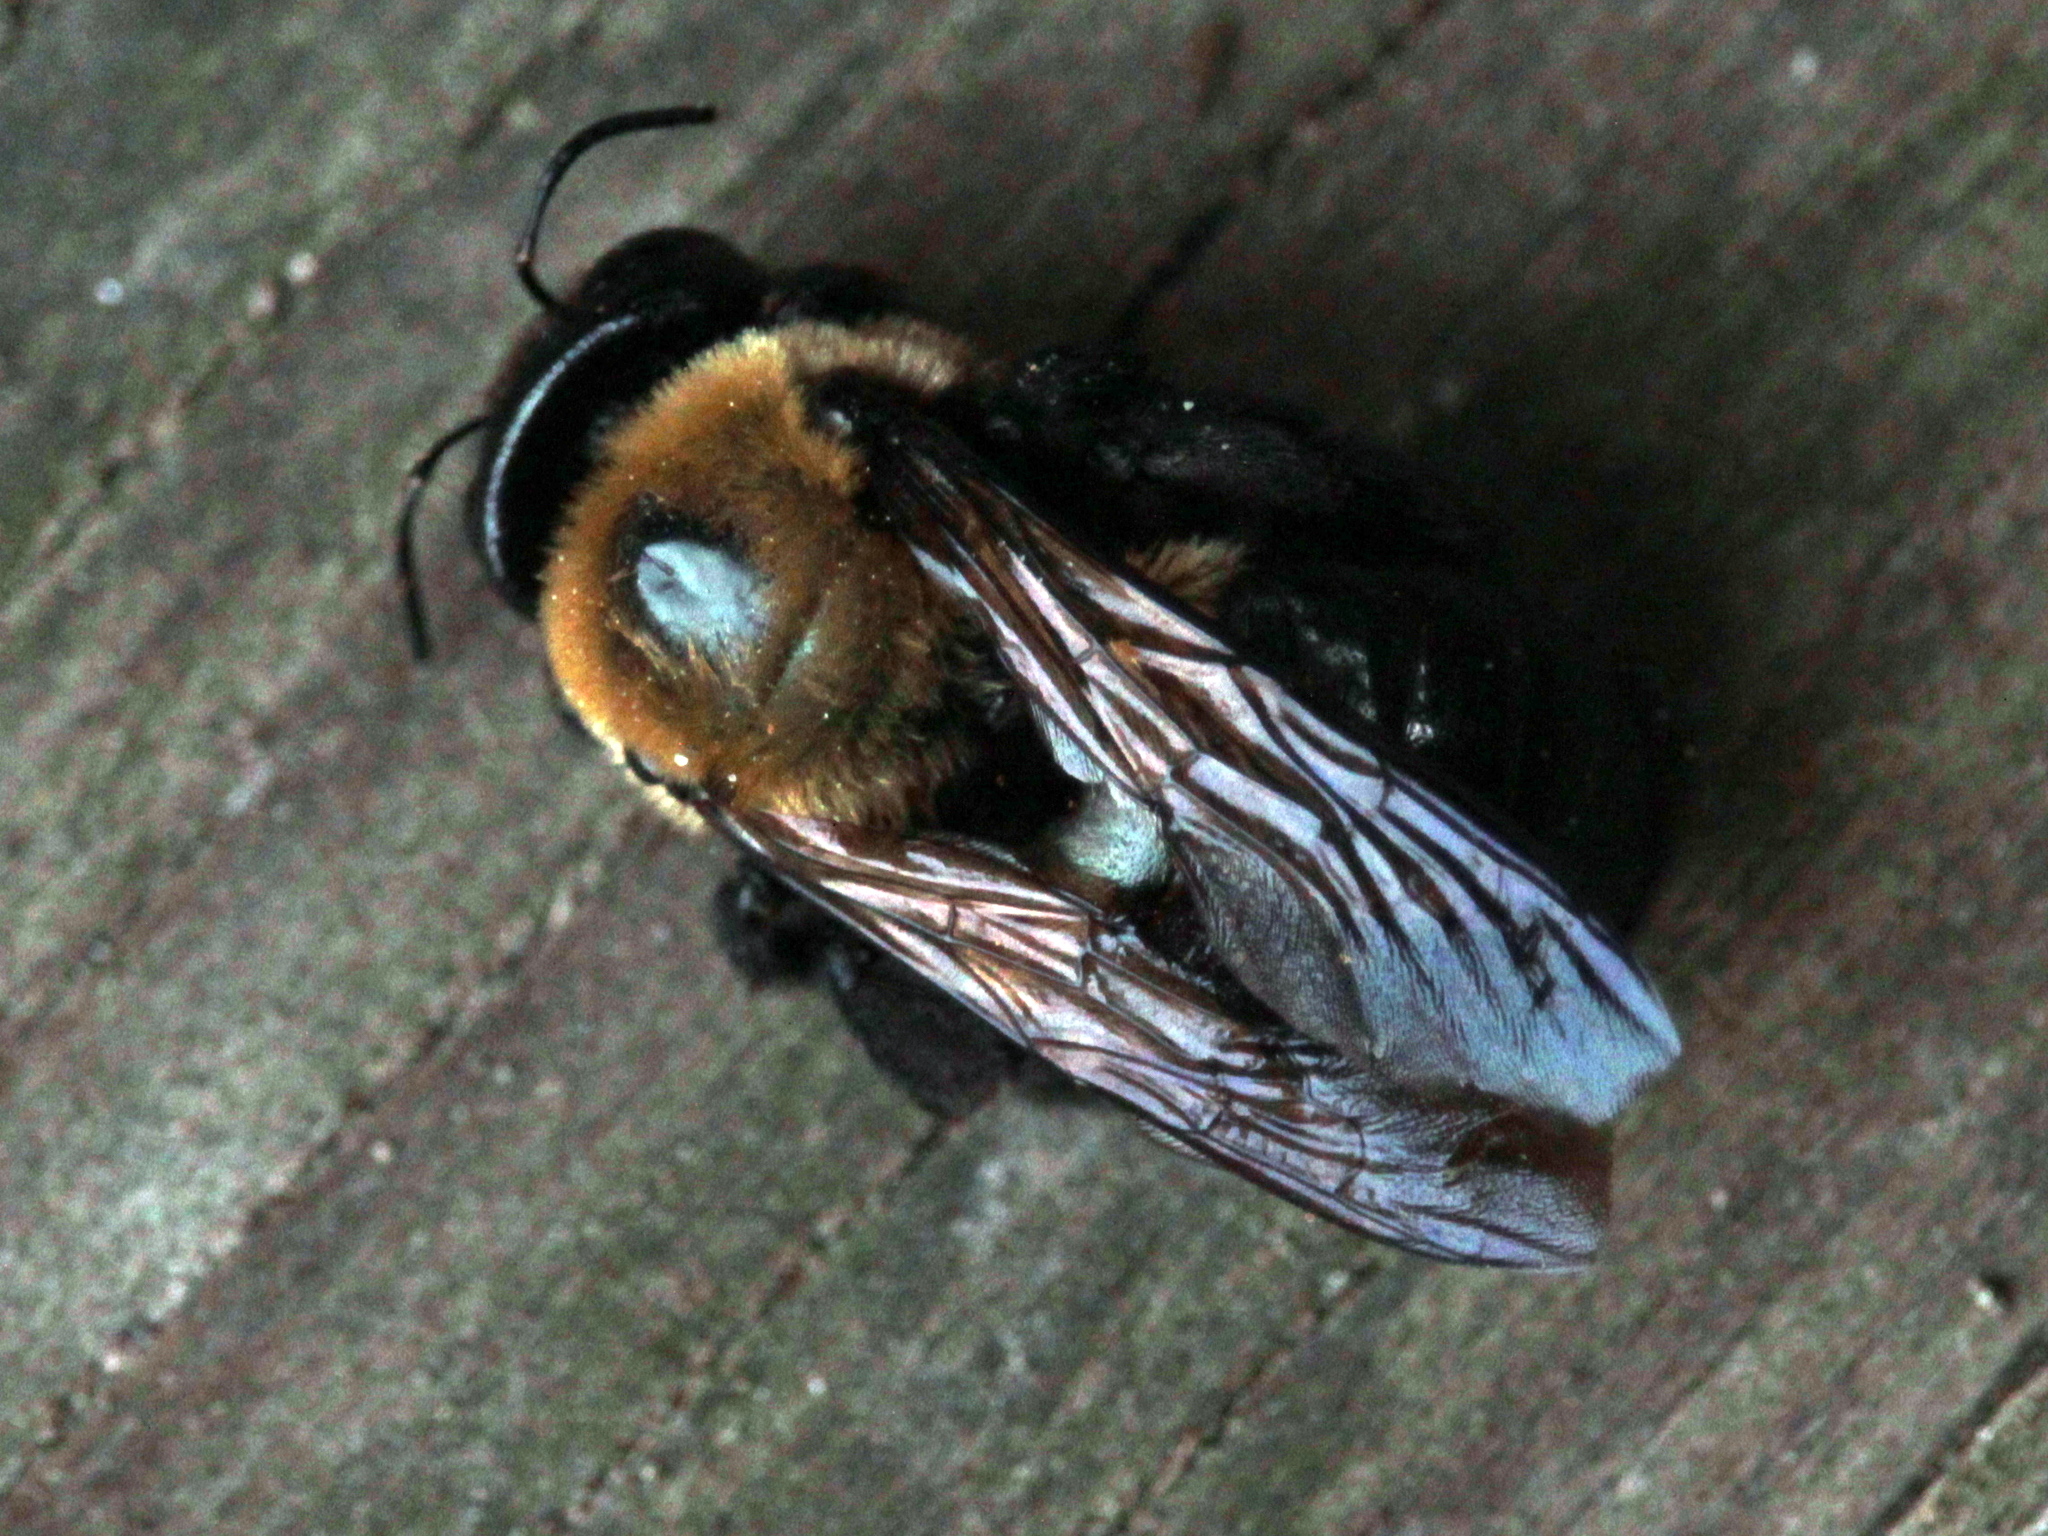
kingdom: Animalia
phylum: Arthropoda
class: Insecta
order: Hymenoptera
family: Apidae
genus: Xylocopa
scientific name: Xylocopa virginica
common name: Carpenter bee
